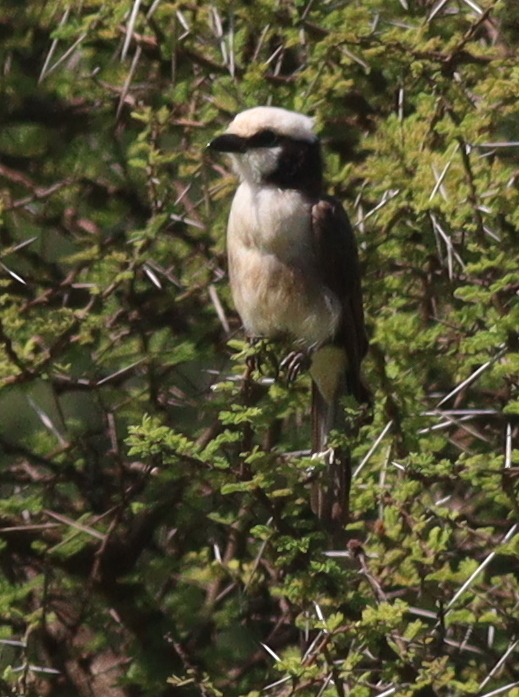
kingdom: Animalia
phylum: Chordata
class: Aves
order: Passeriformes
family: Laniidae
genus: Eurocephalus
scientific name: Eurocephalus ruppelli
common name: Northern white-crowned shrike
